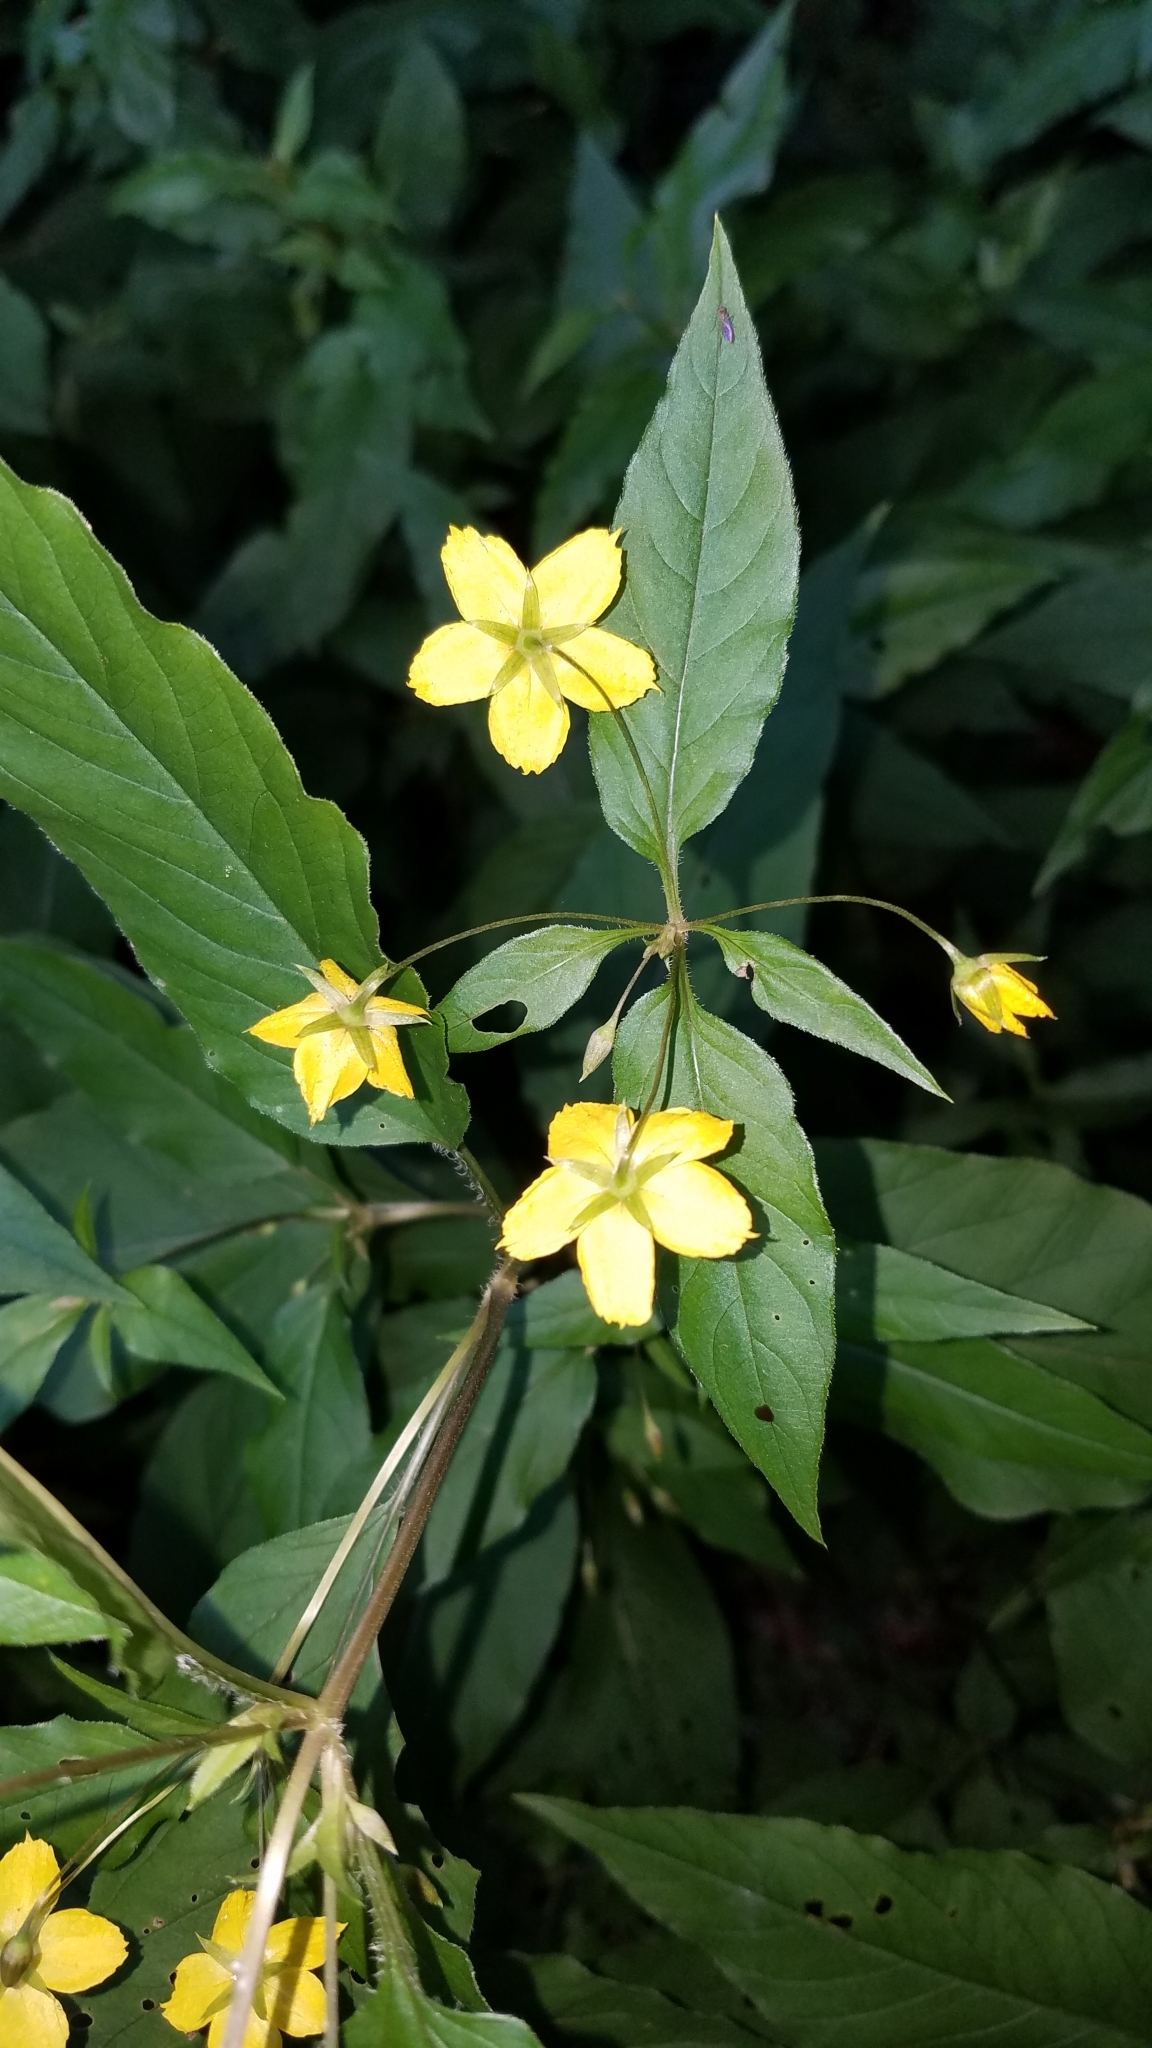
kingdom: Plantae
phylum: Tracheophyta
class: Magnoliopsida
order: Ericales
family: Primulaceae
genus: Lysimachia
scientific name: Lysimachia ciliata
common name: Fringed loosestrife
